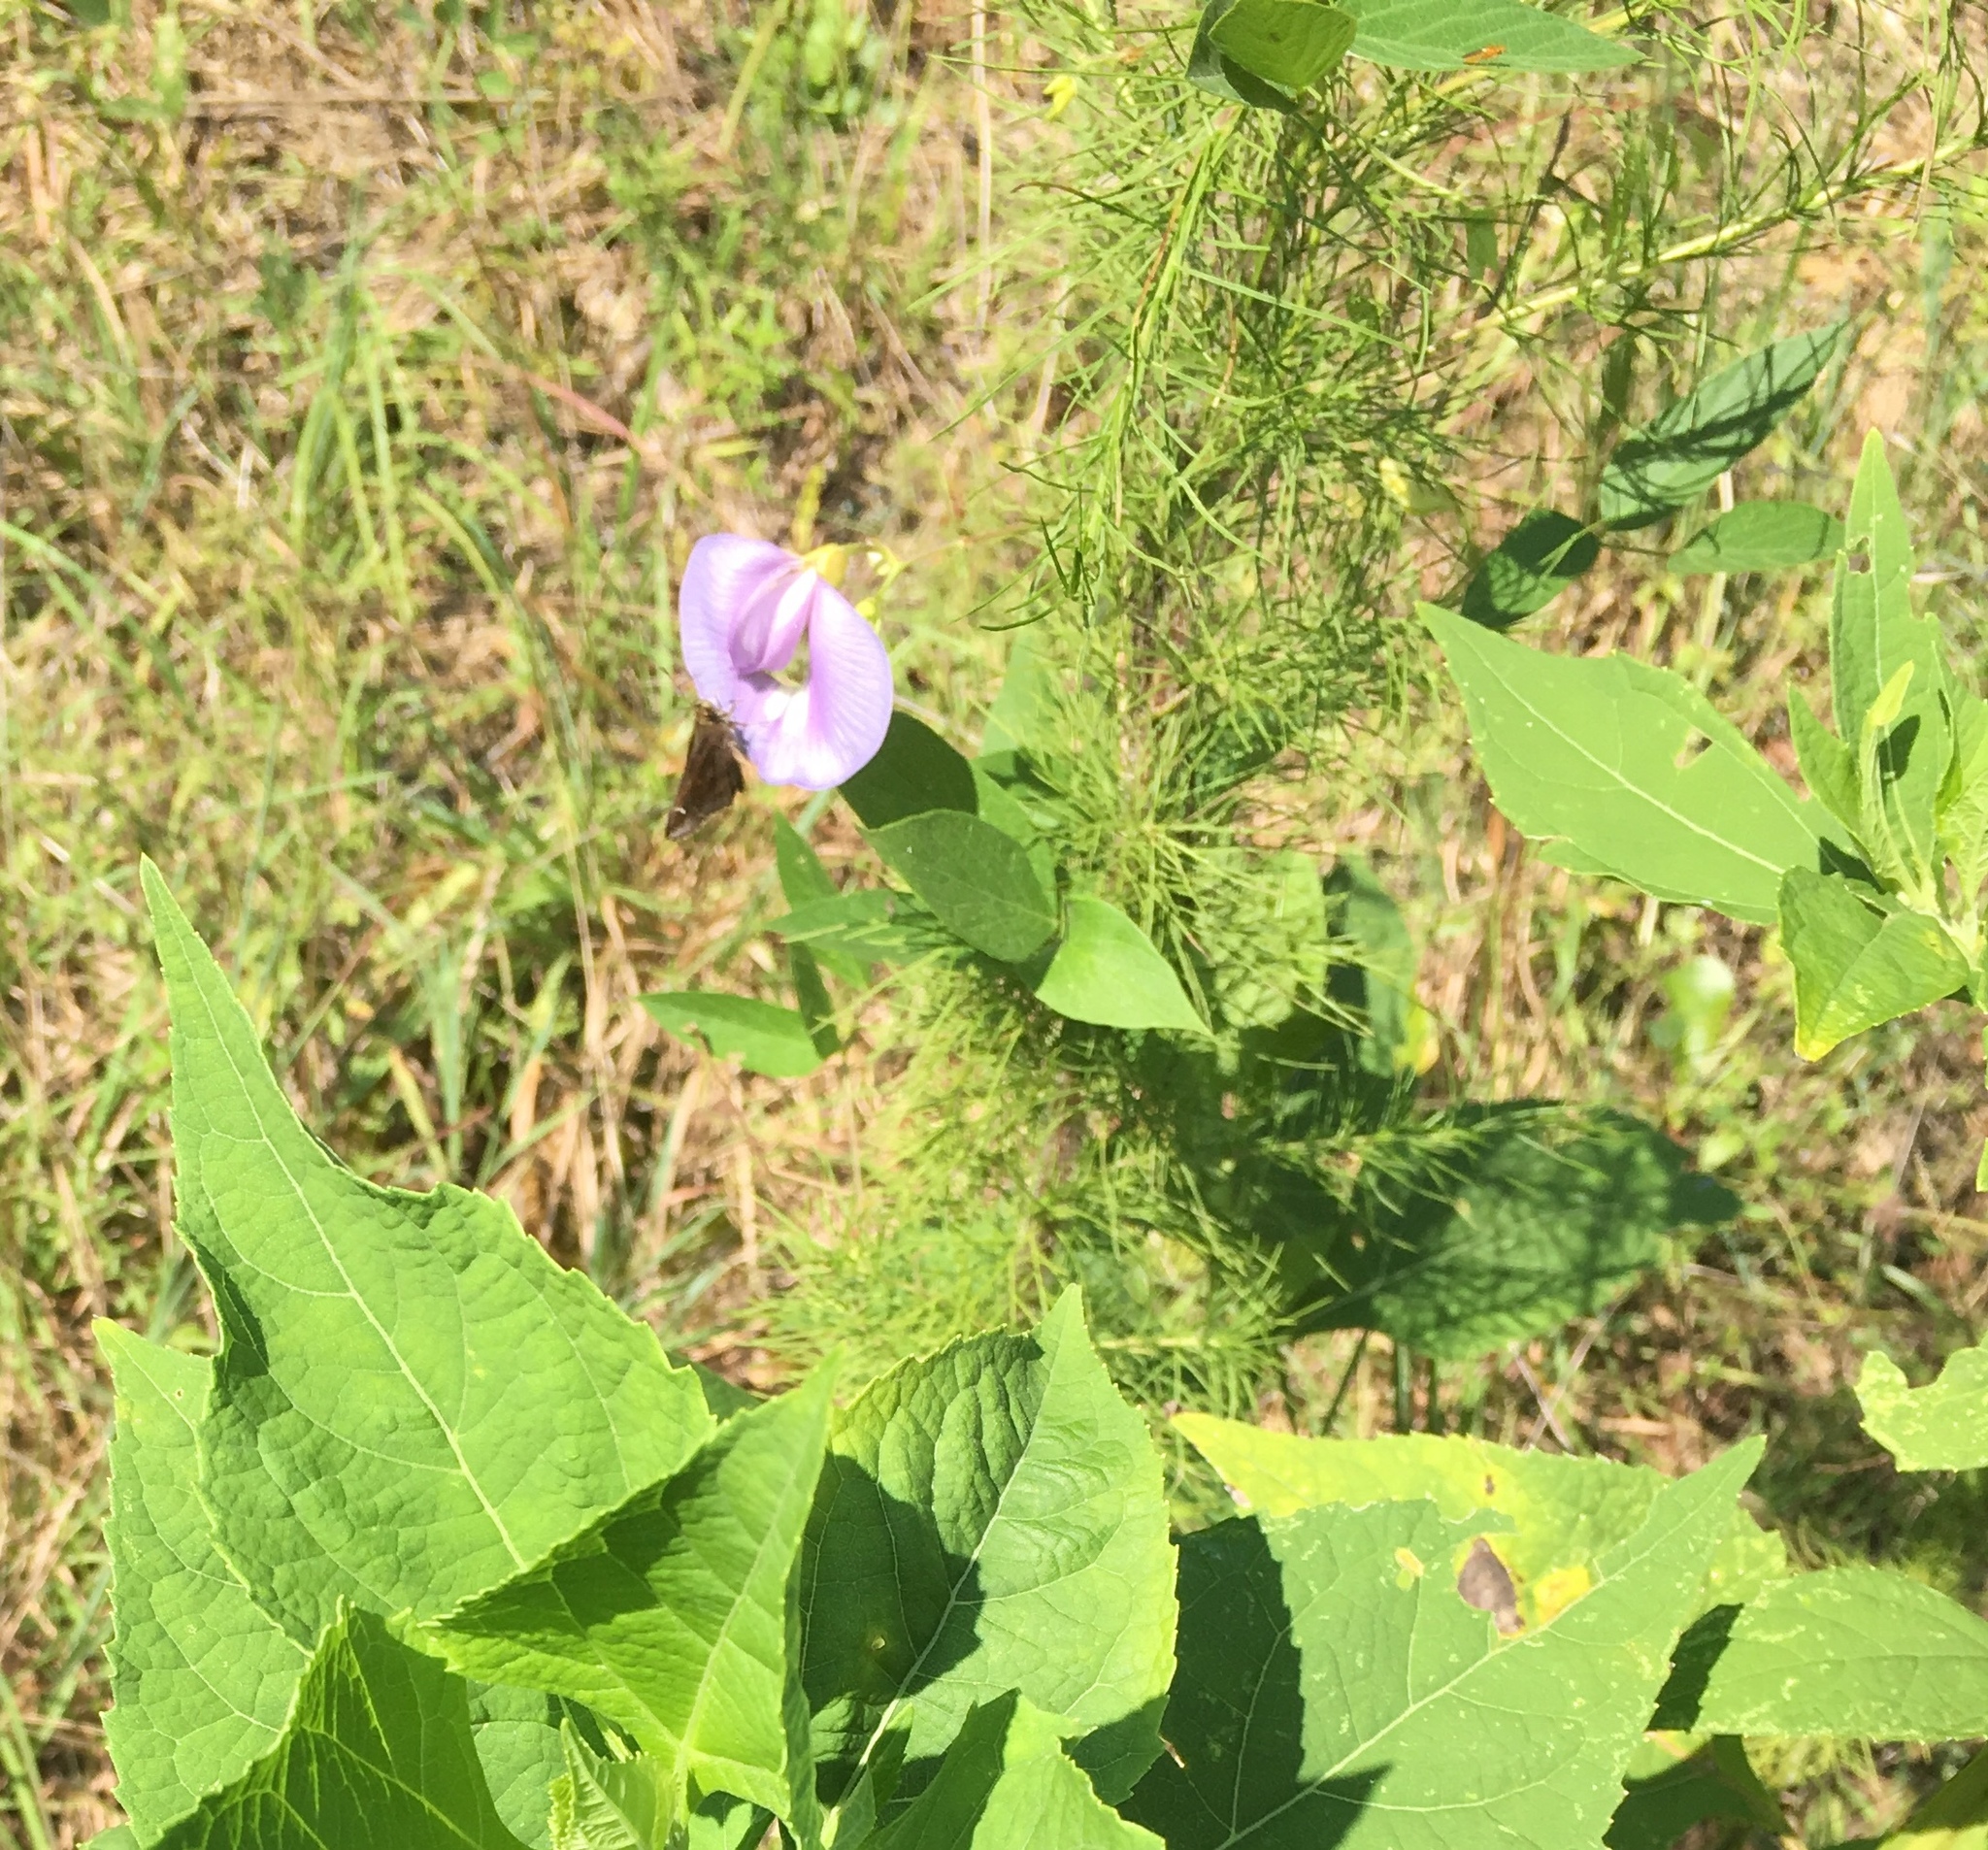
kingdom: Plantae
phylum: Tracheophyta
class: Magnoliopsida
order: Fabales
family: Fabaceae
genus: Centrosema
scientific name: Centrosema virginianum
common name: Butterfly-pea
